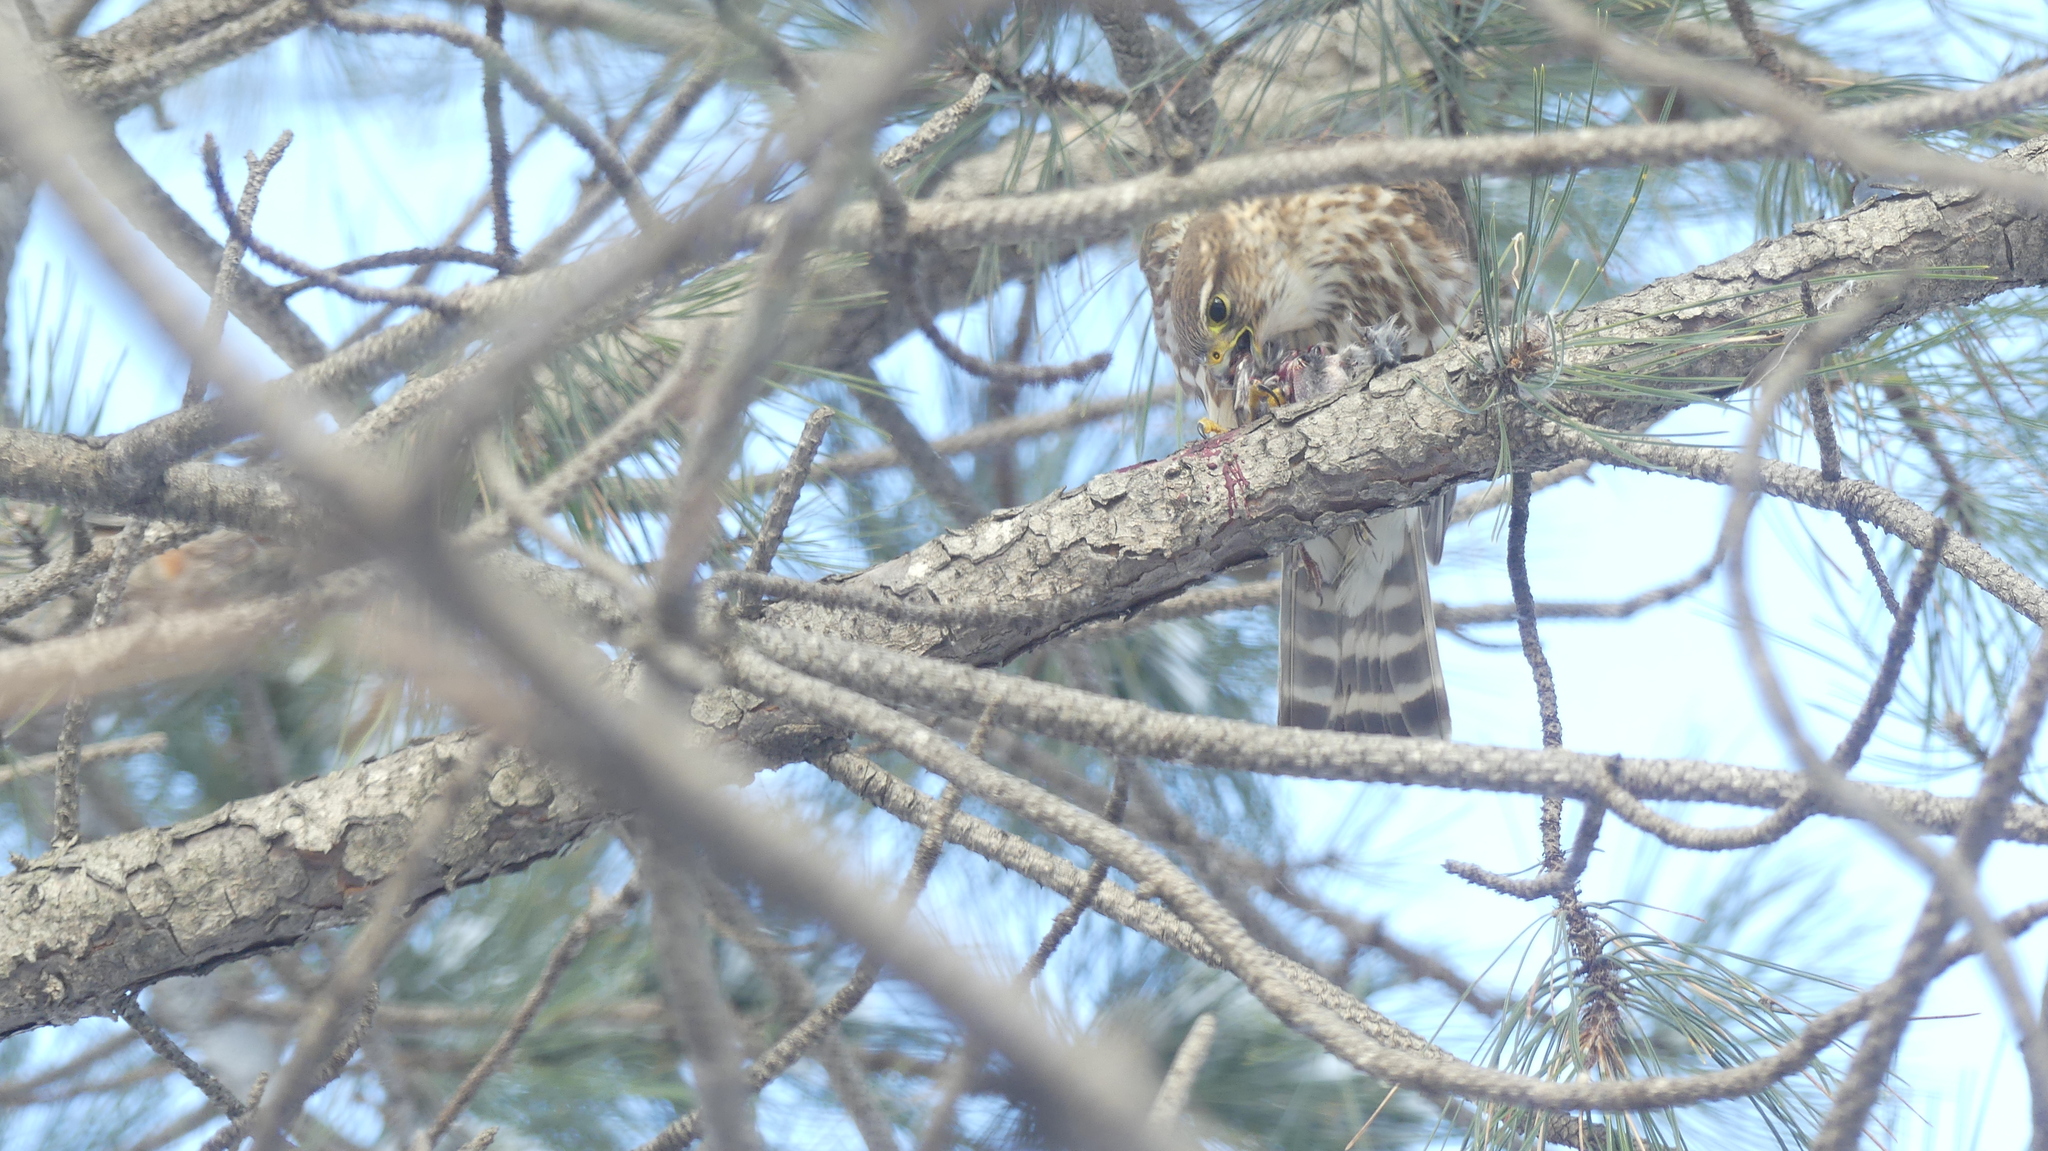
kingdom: Animalia
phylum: Chordata
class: Aves
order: Falconiformes
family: Falconidae
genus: Falco
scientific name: Falco columbarius
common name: Merlin
